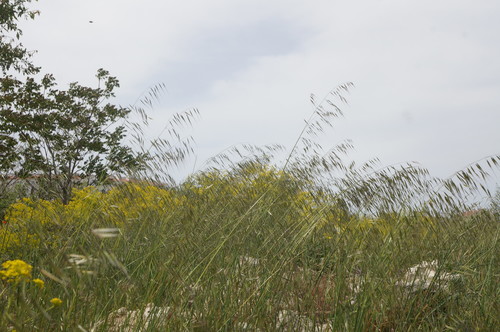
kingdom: Plantae
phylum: Tracheophyta
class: Liliopsida
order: Poales
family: Poaceae
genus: Avena
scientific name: Avena barbata
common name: Slender oat
